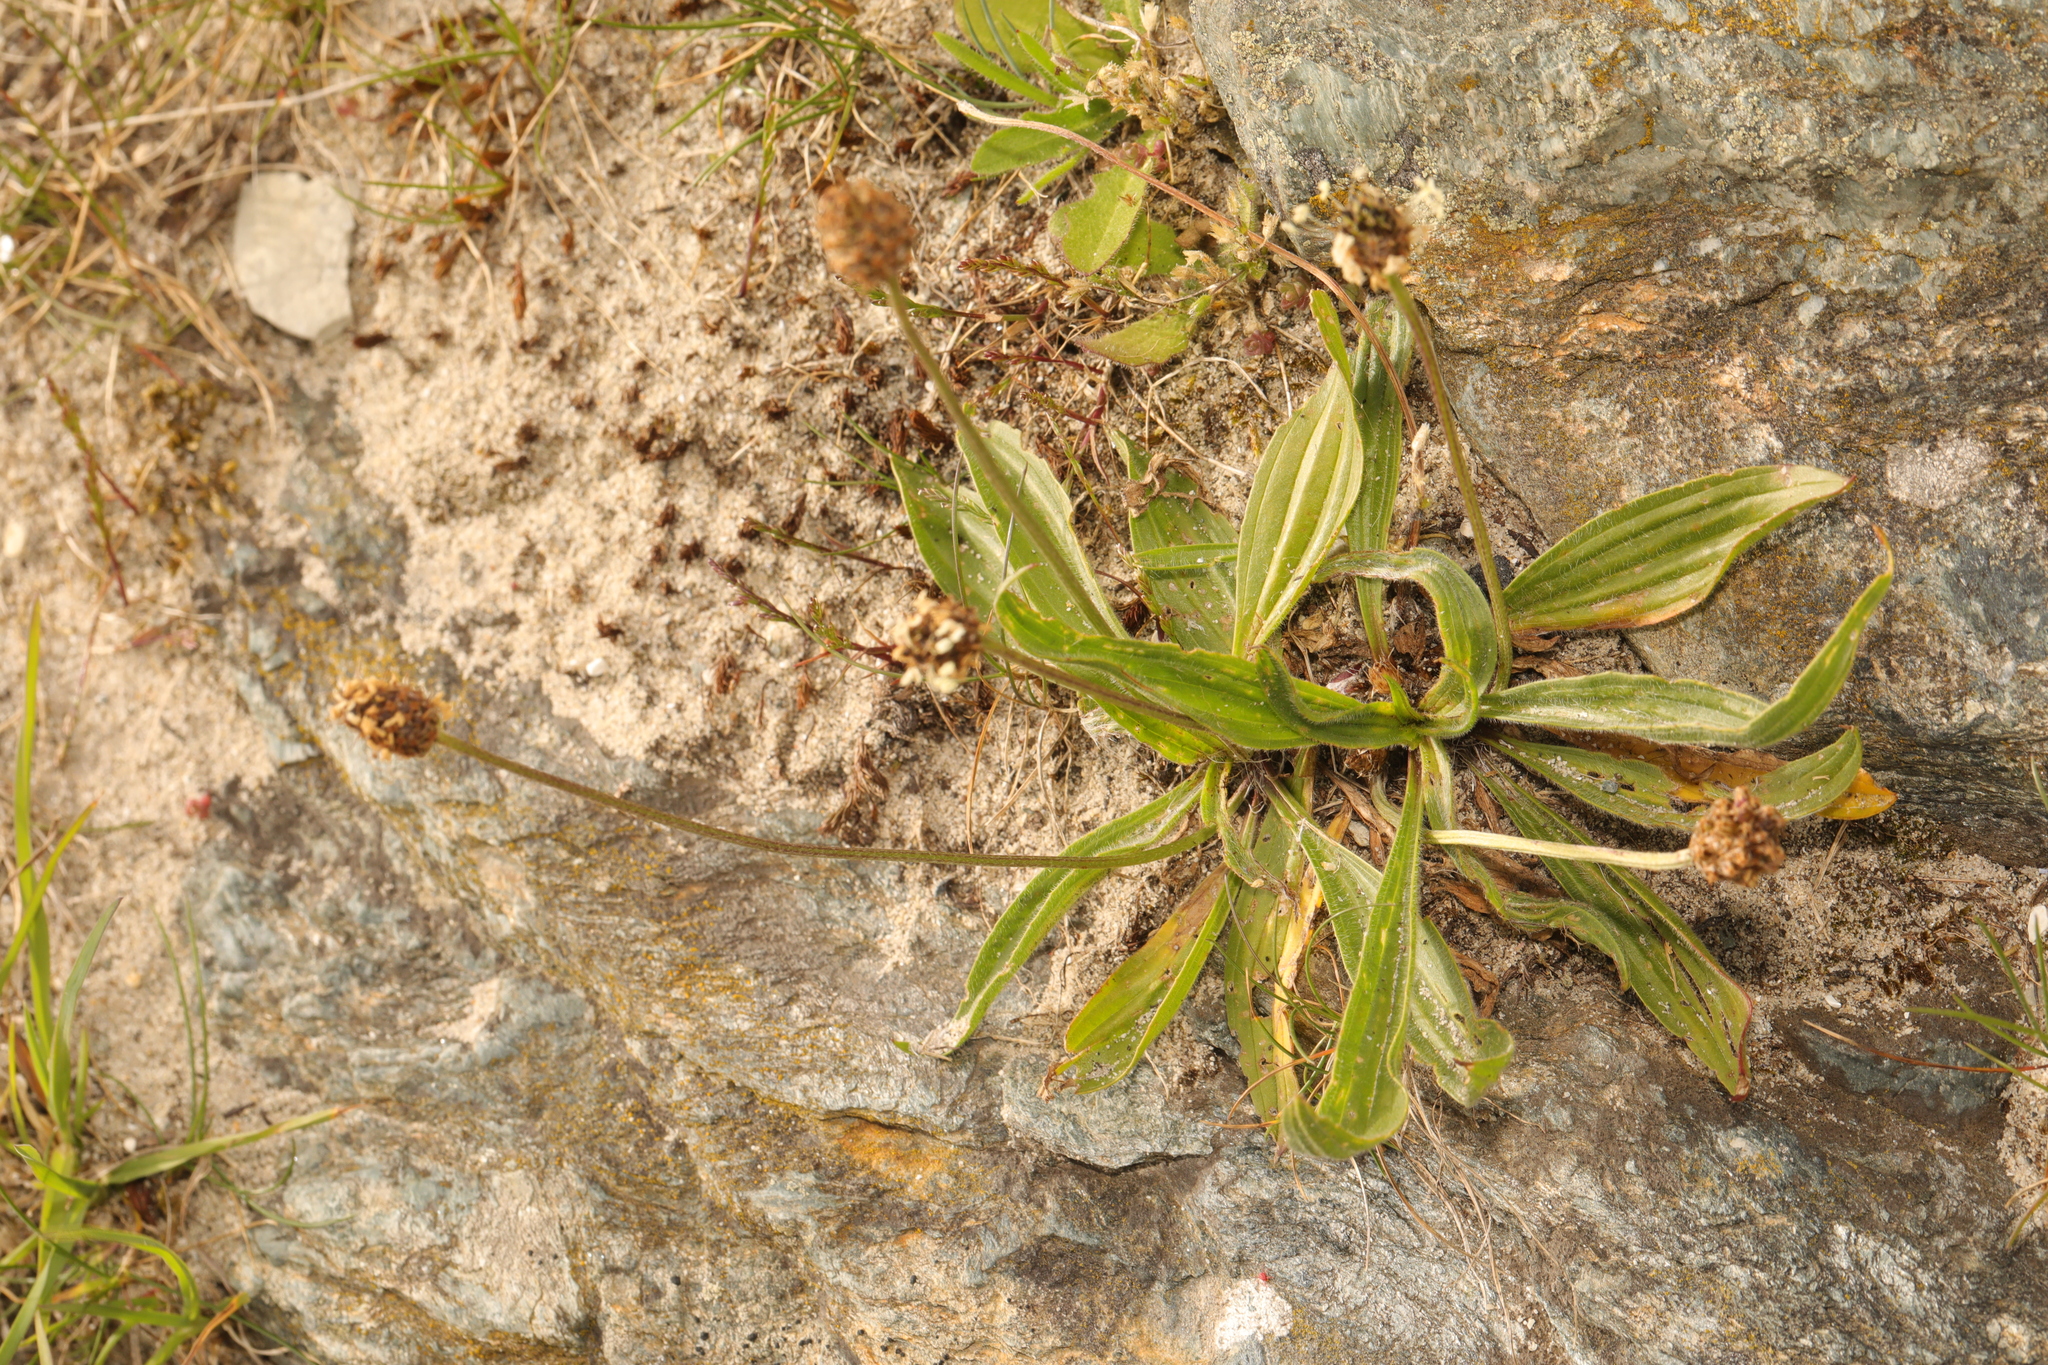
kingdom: Plantae
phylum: Tracheophyta
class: Magnoliopsida
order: Lamiales
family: Plantaginaceae
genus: Plantago
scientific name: Plantago lanceolata
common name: Ribwort plantain
